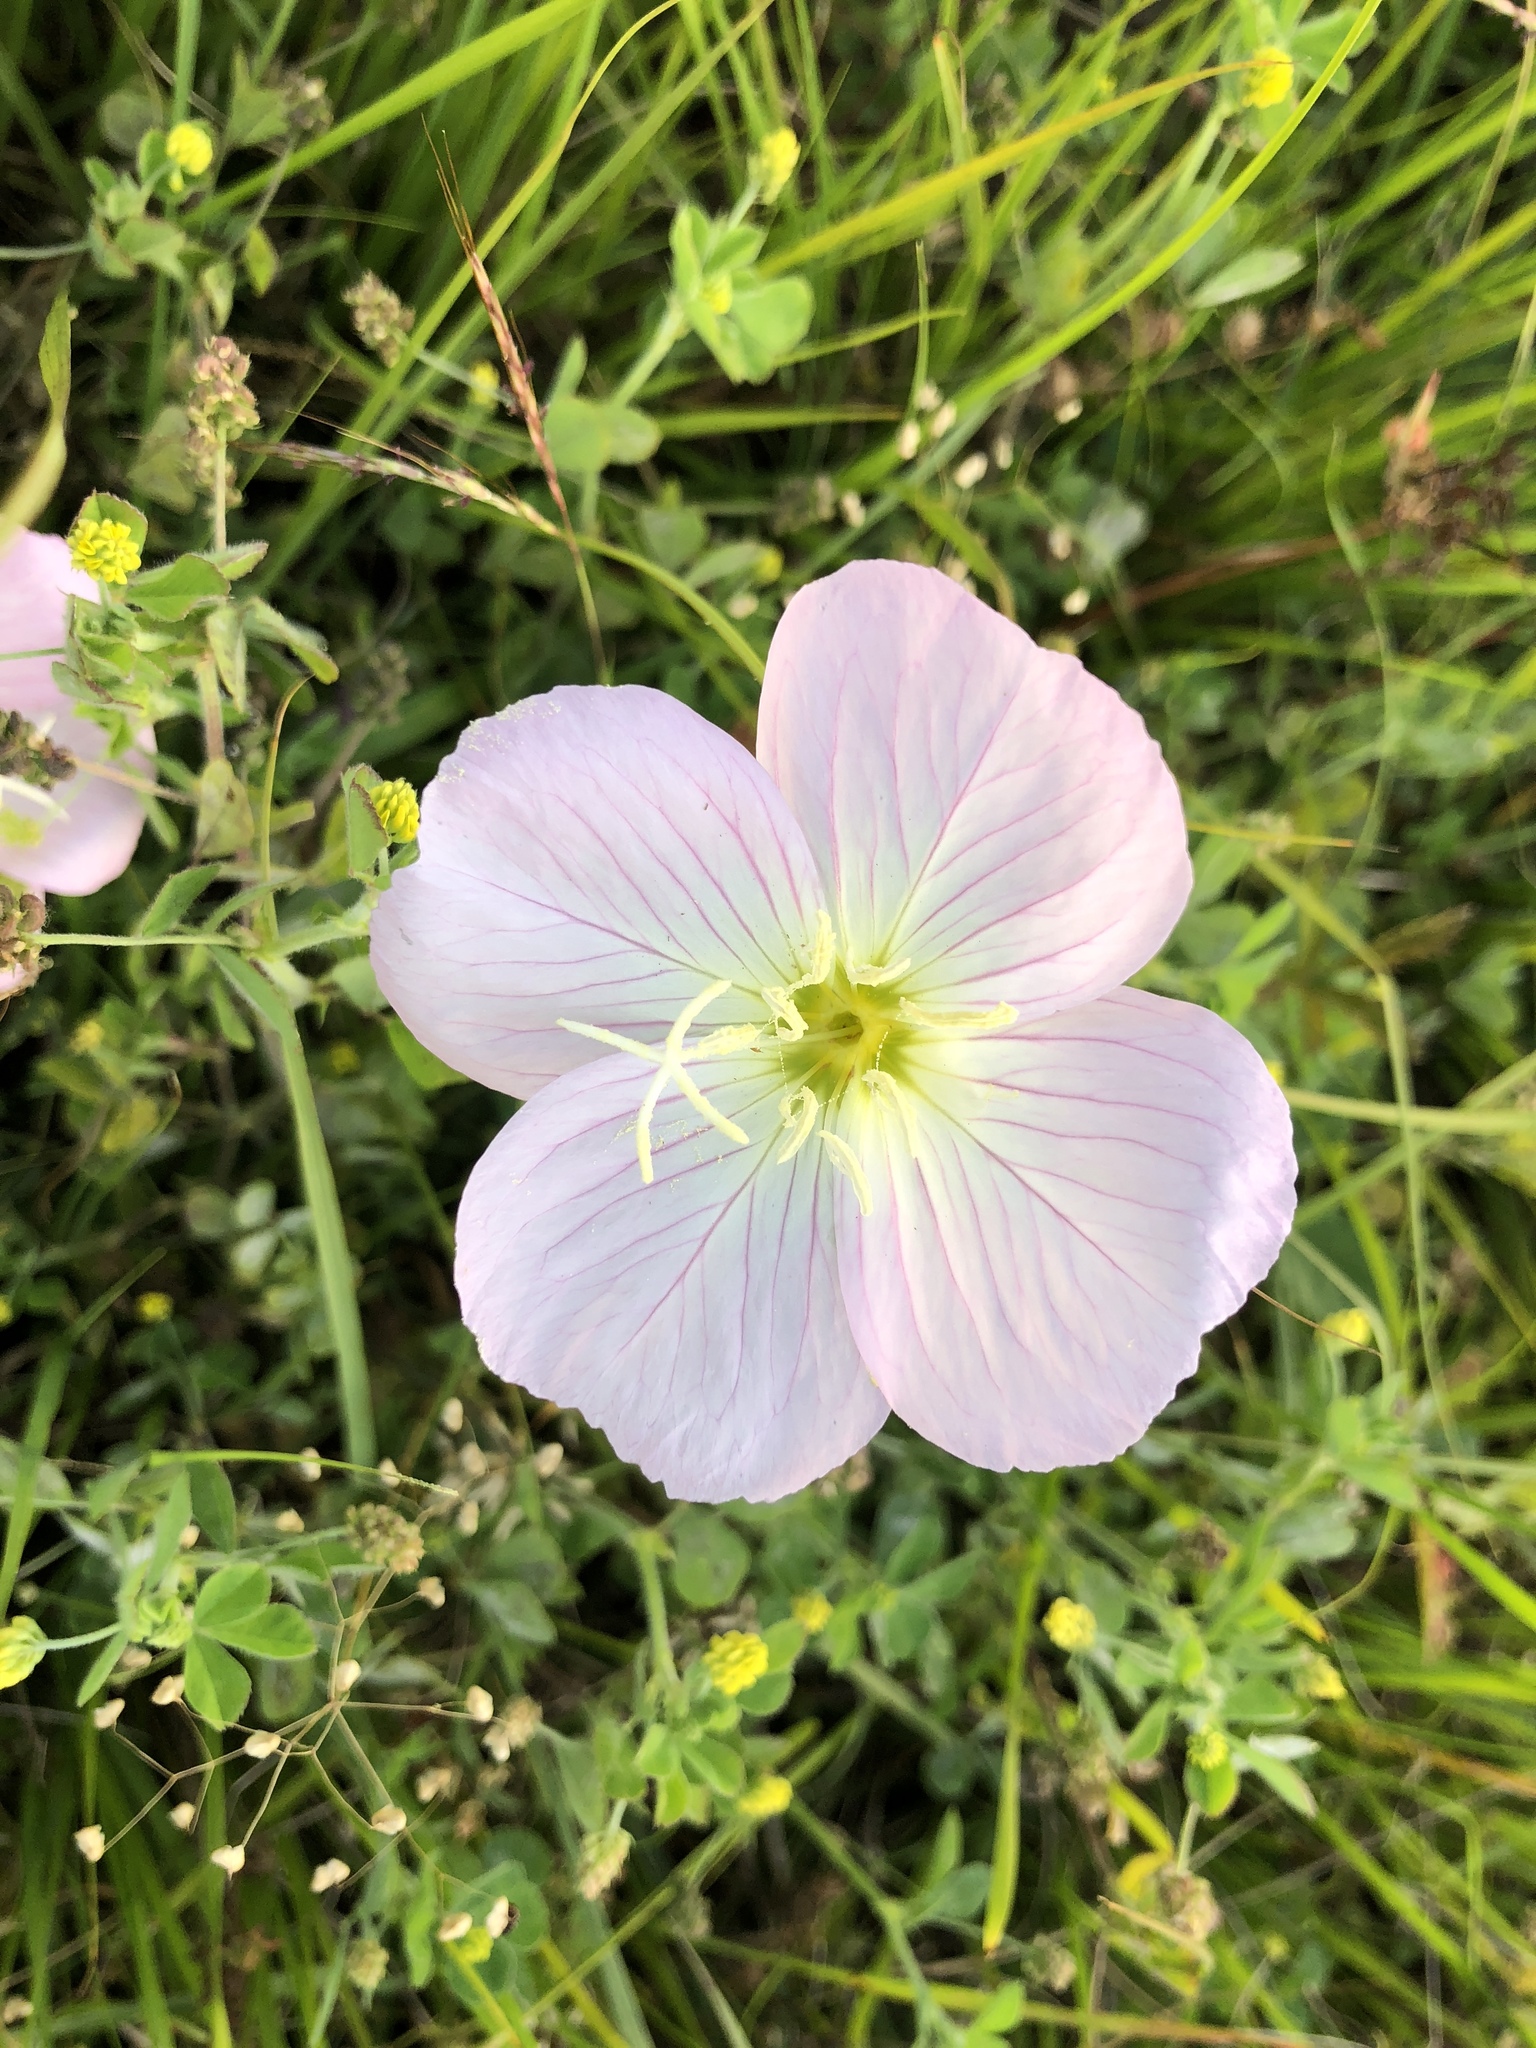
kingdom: Plantae
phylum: Tracheophyta
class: Magnoliopsida
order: Myrtales
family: Onagraceae
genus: Oenothera
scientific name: Oenothera speciosa
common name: White evening-primrose
